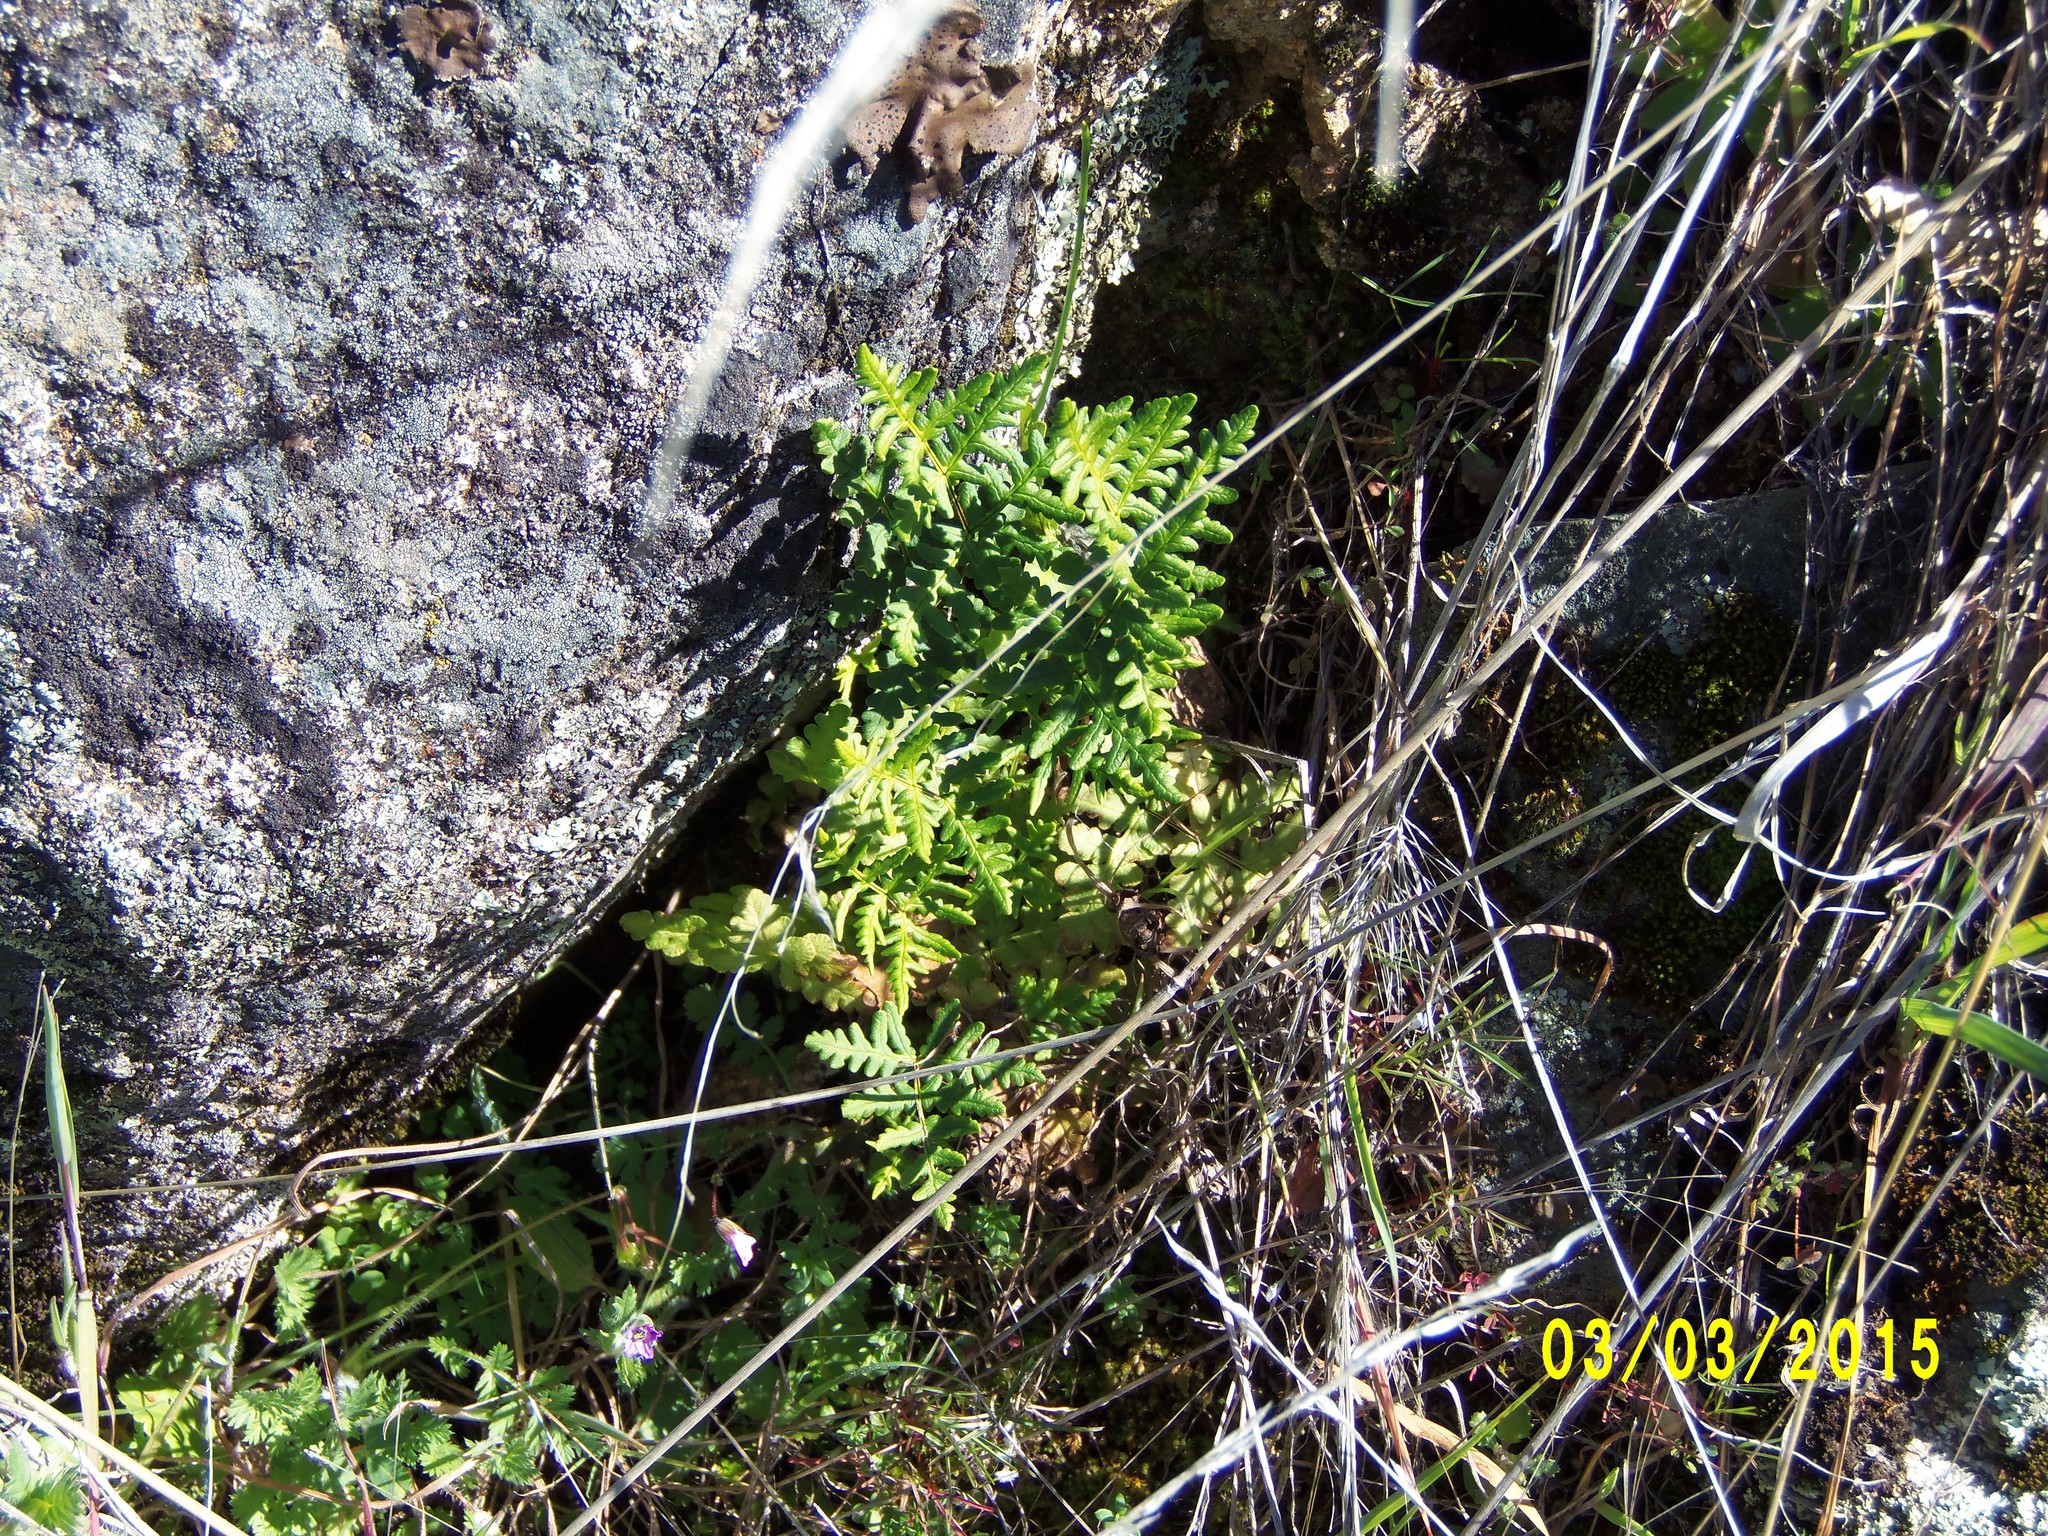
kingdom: Plantae
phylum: Tracheophyta
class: Polypodiopsida
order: Polypodiales
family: Pteridaceae
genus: Pentagramma
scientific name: Pentagramma triangularis
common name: Gold fern
